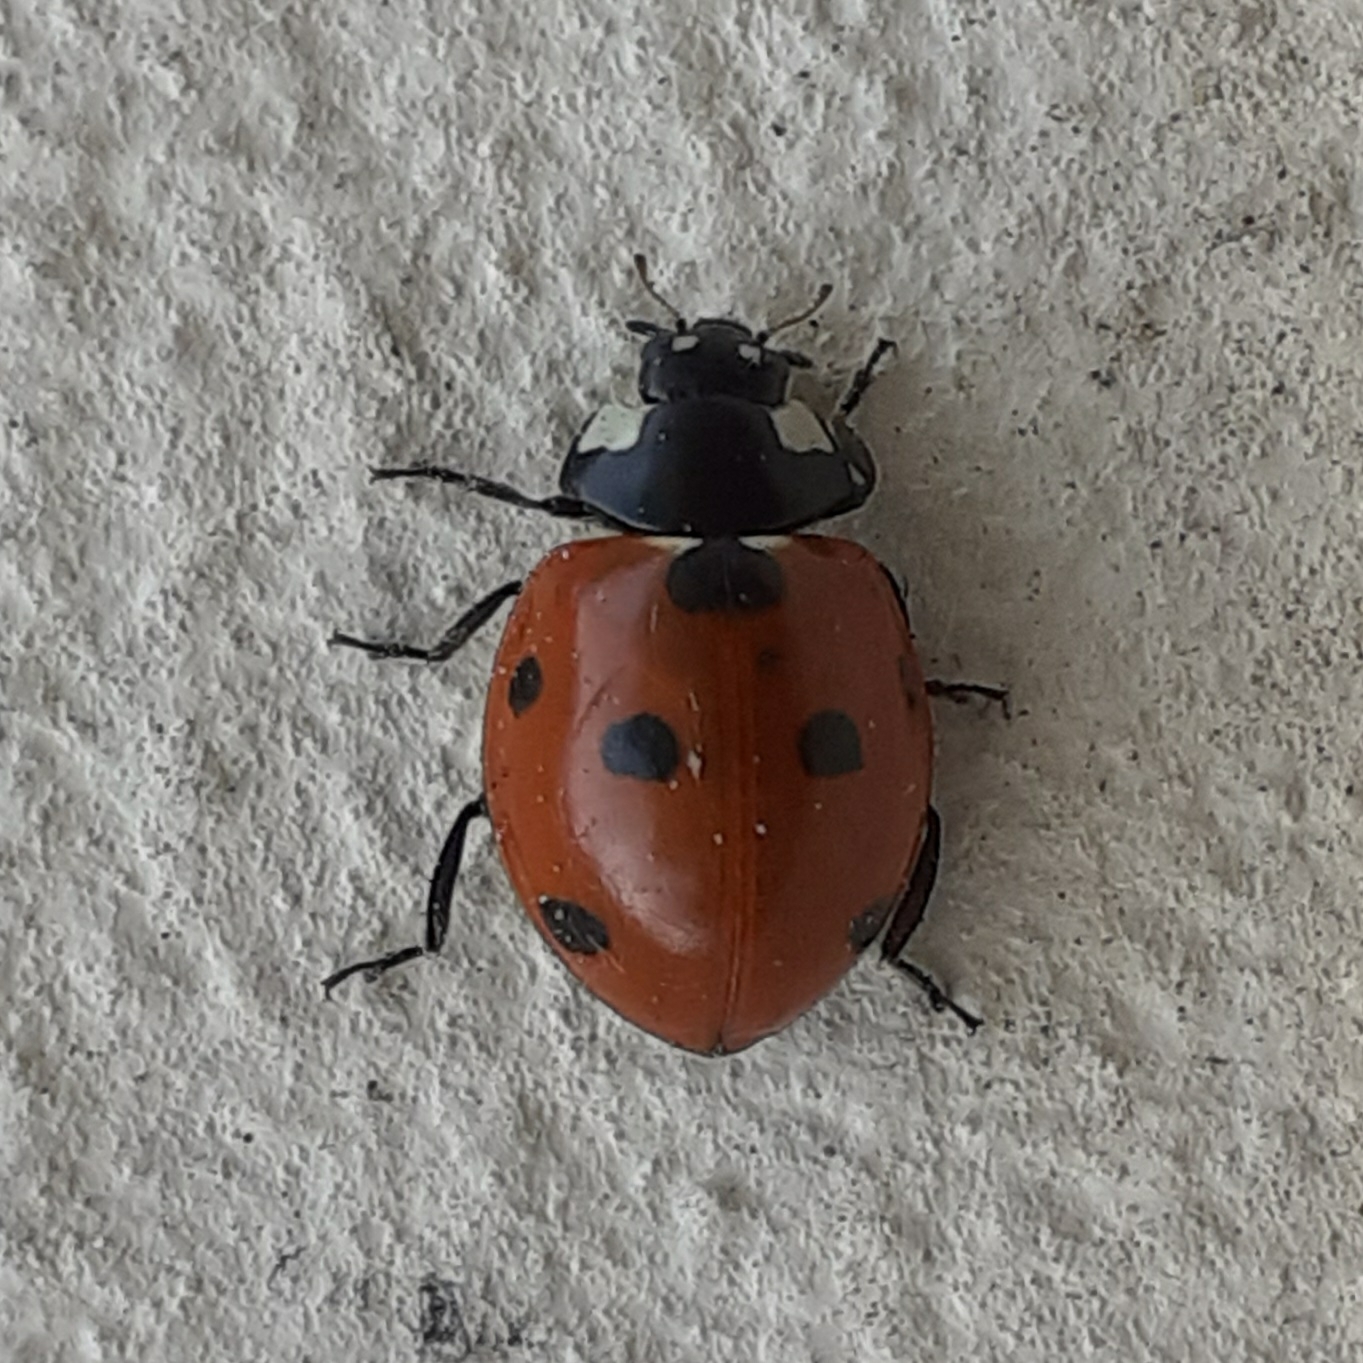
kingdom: Animalia
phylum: Arthropoda
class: Insecta
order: Coleoptera
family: Coccinellidae
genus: Coccinella
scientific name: Coccinella septempunctata
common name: Sevenspotted lady beetle
